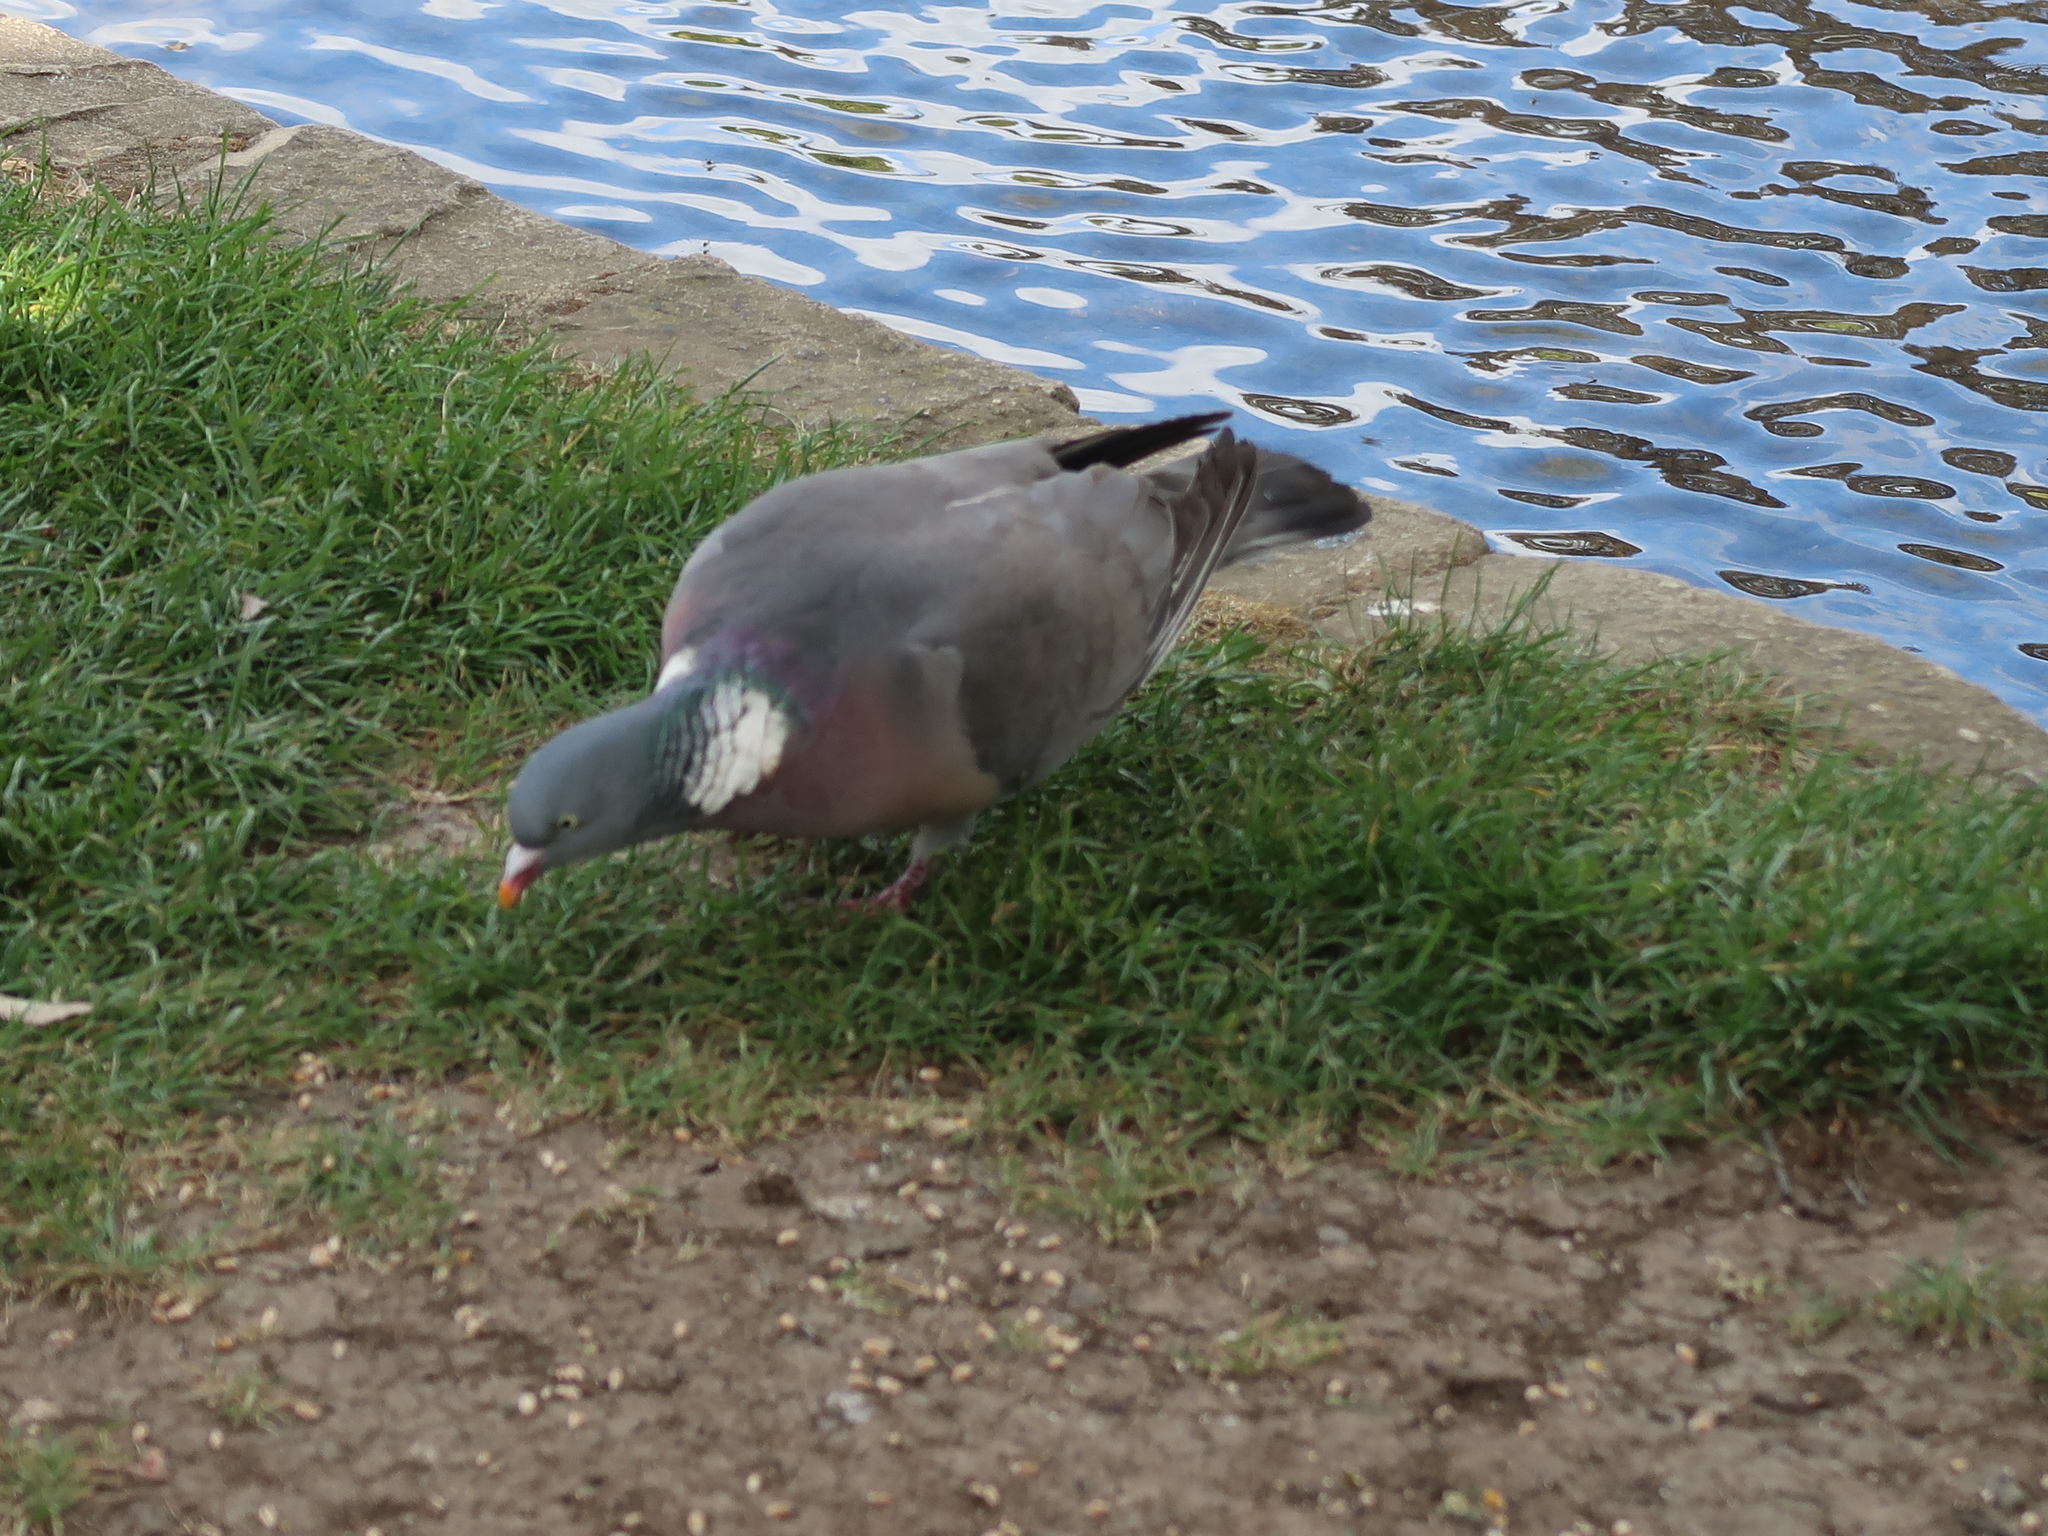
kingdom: Animalia
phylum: Chordata
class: Aves
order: Columbiformes
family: Columbidae
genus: Columba
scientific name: Columba palumbus
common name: Common wood pigeon
